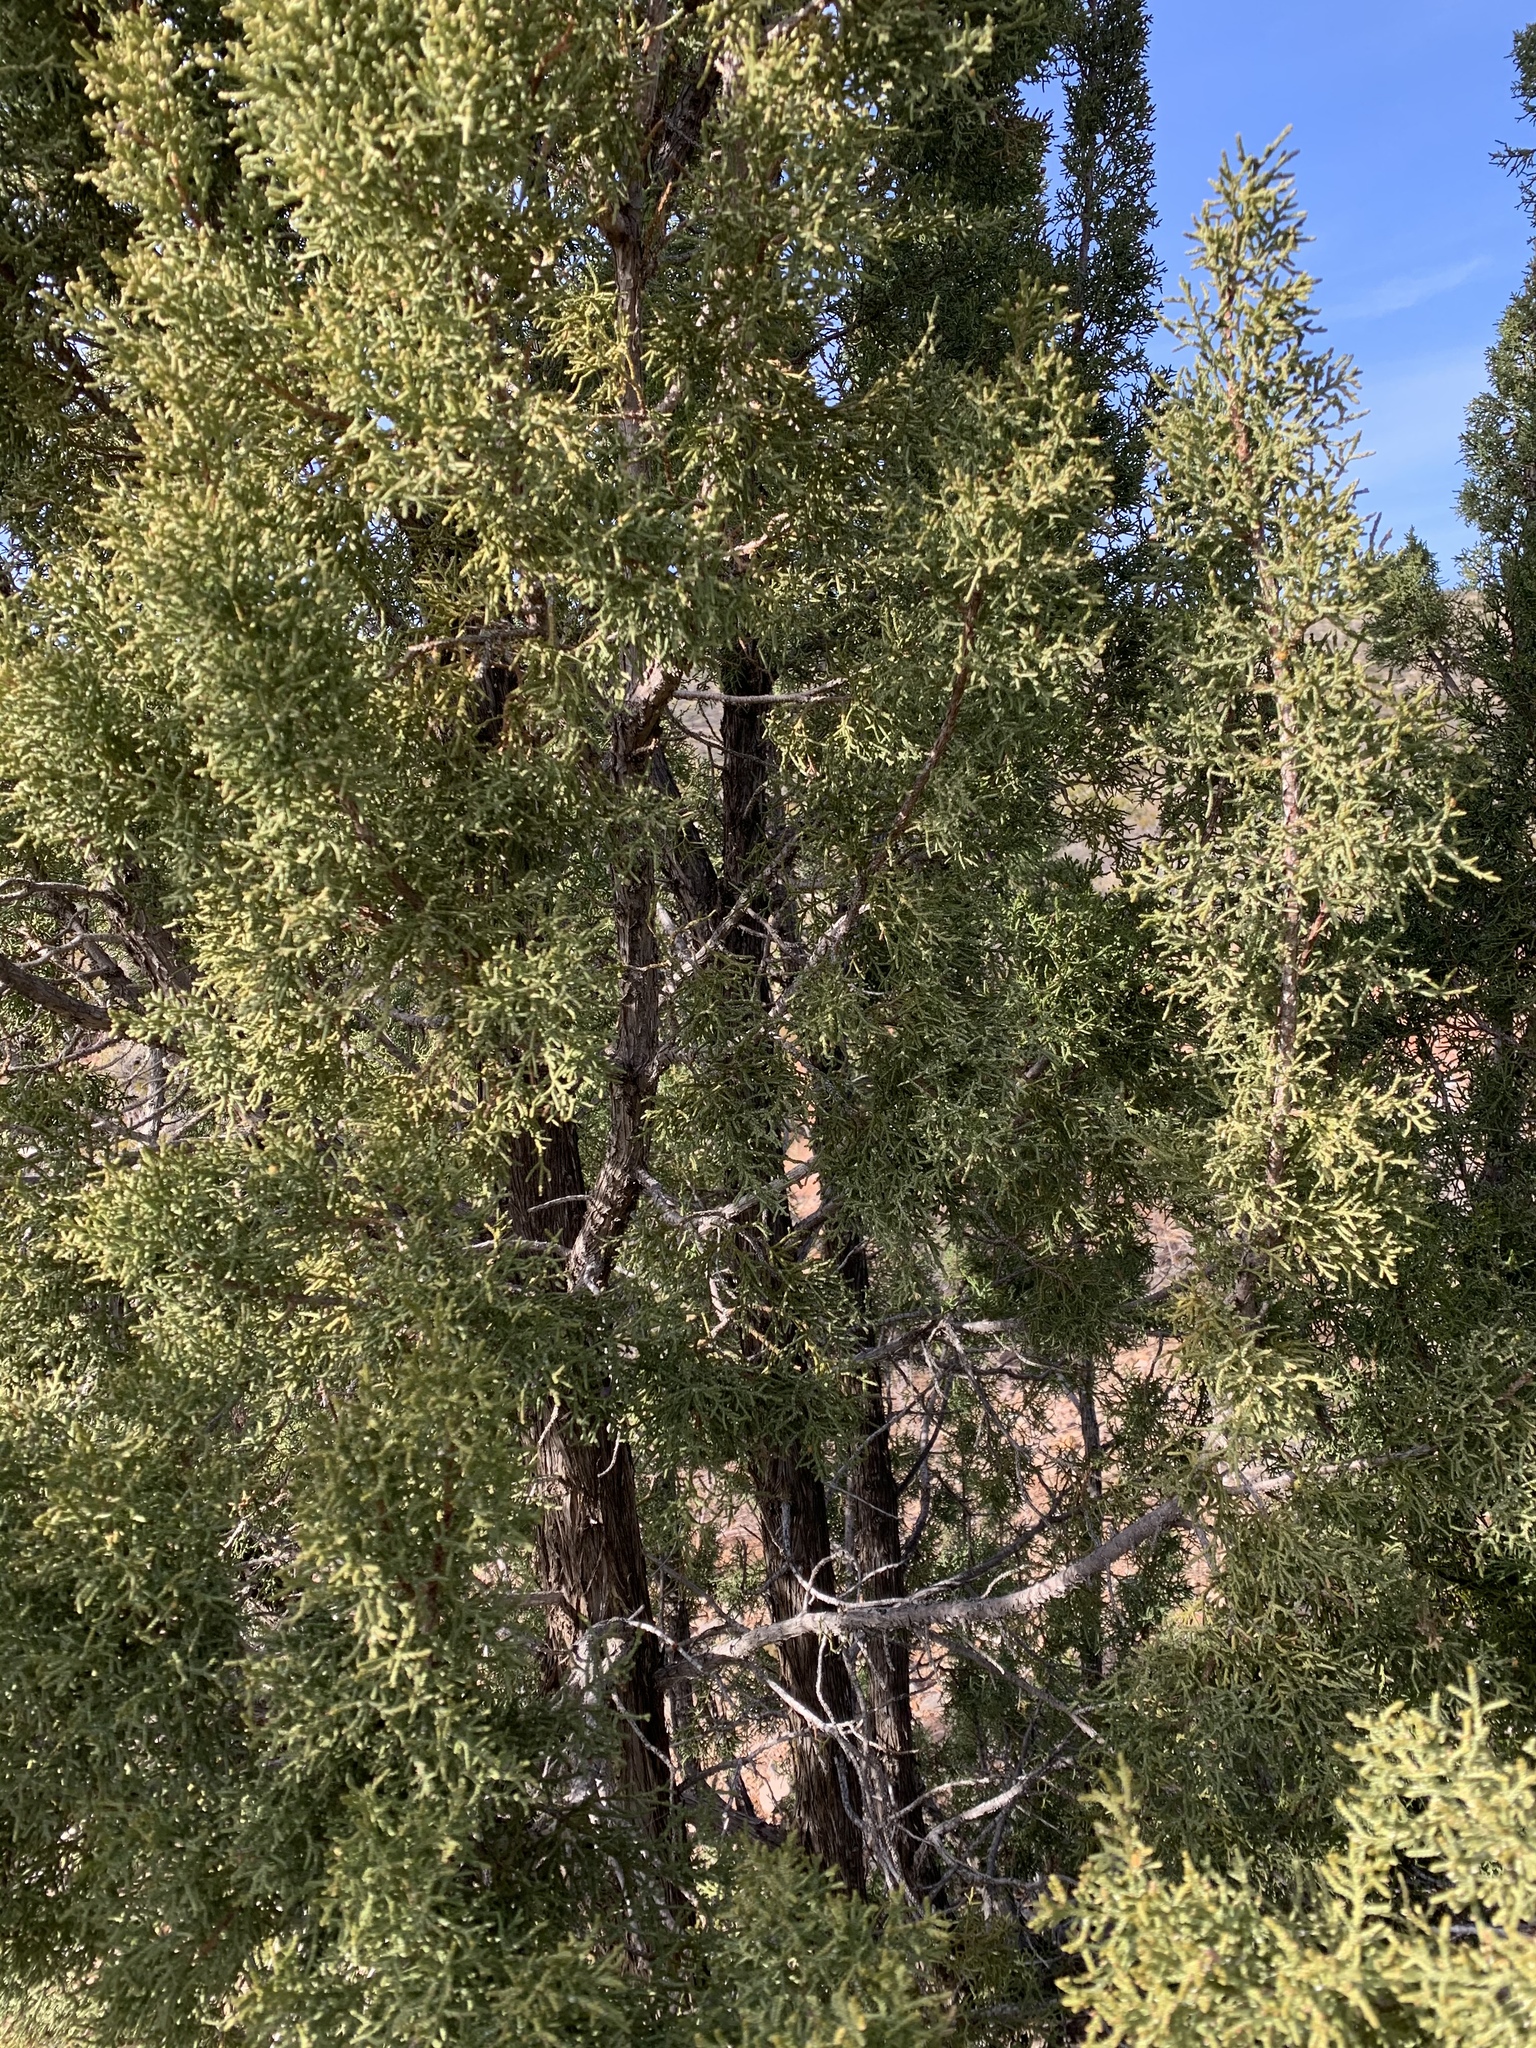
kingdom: Plantae
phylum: Tracheophyta
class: Pinopsida
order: Pinales
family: Cupressaceae
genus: Juniperus
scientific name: Juniperus monosperma
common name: One-seed juniper
